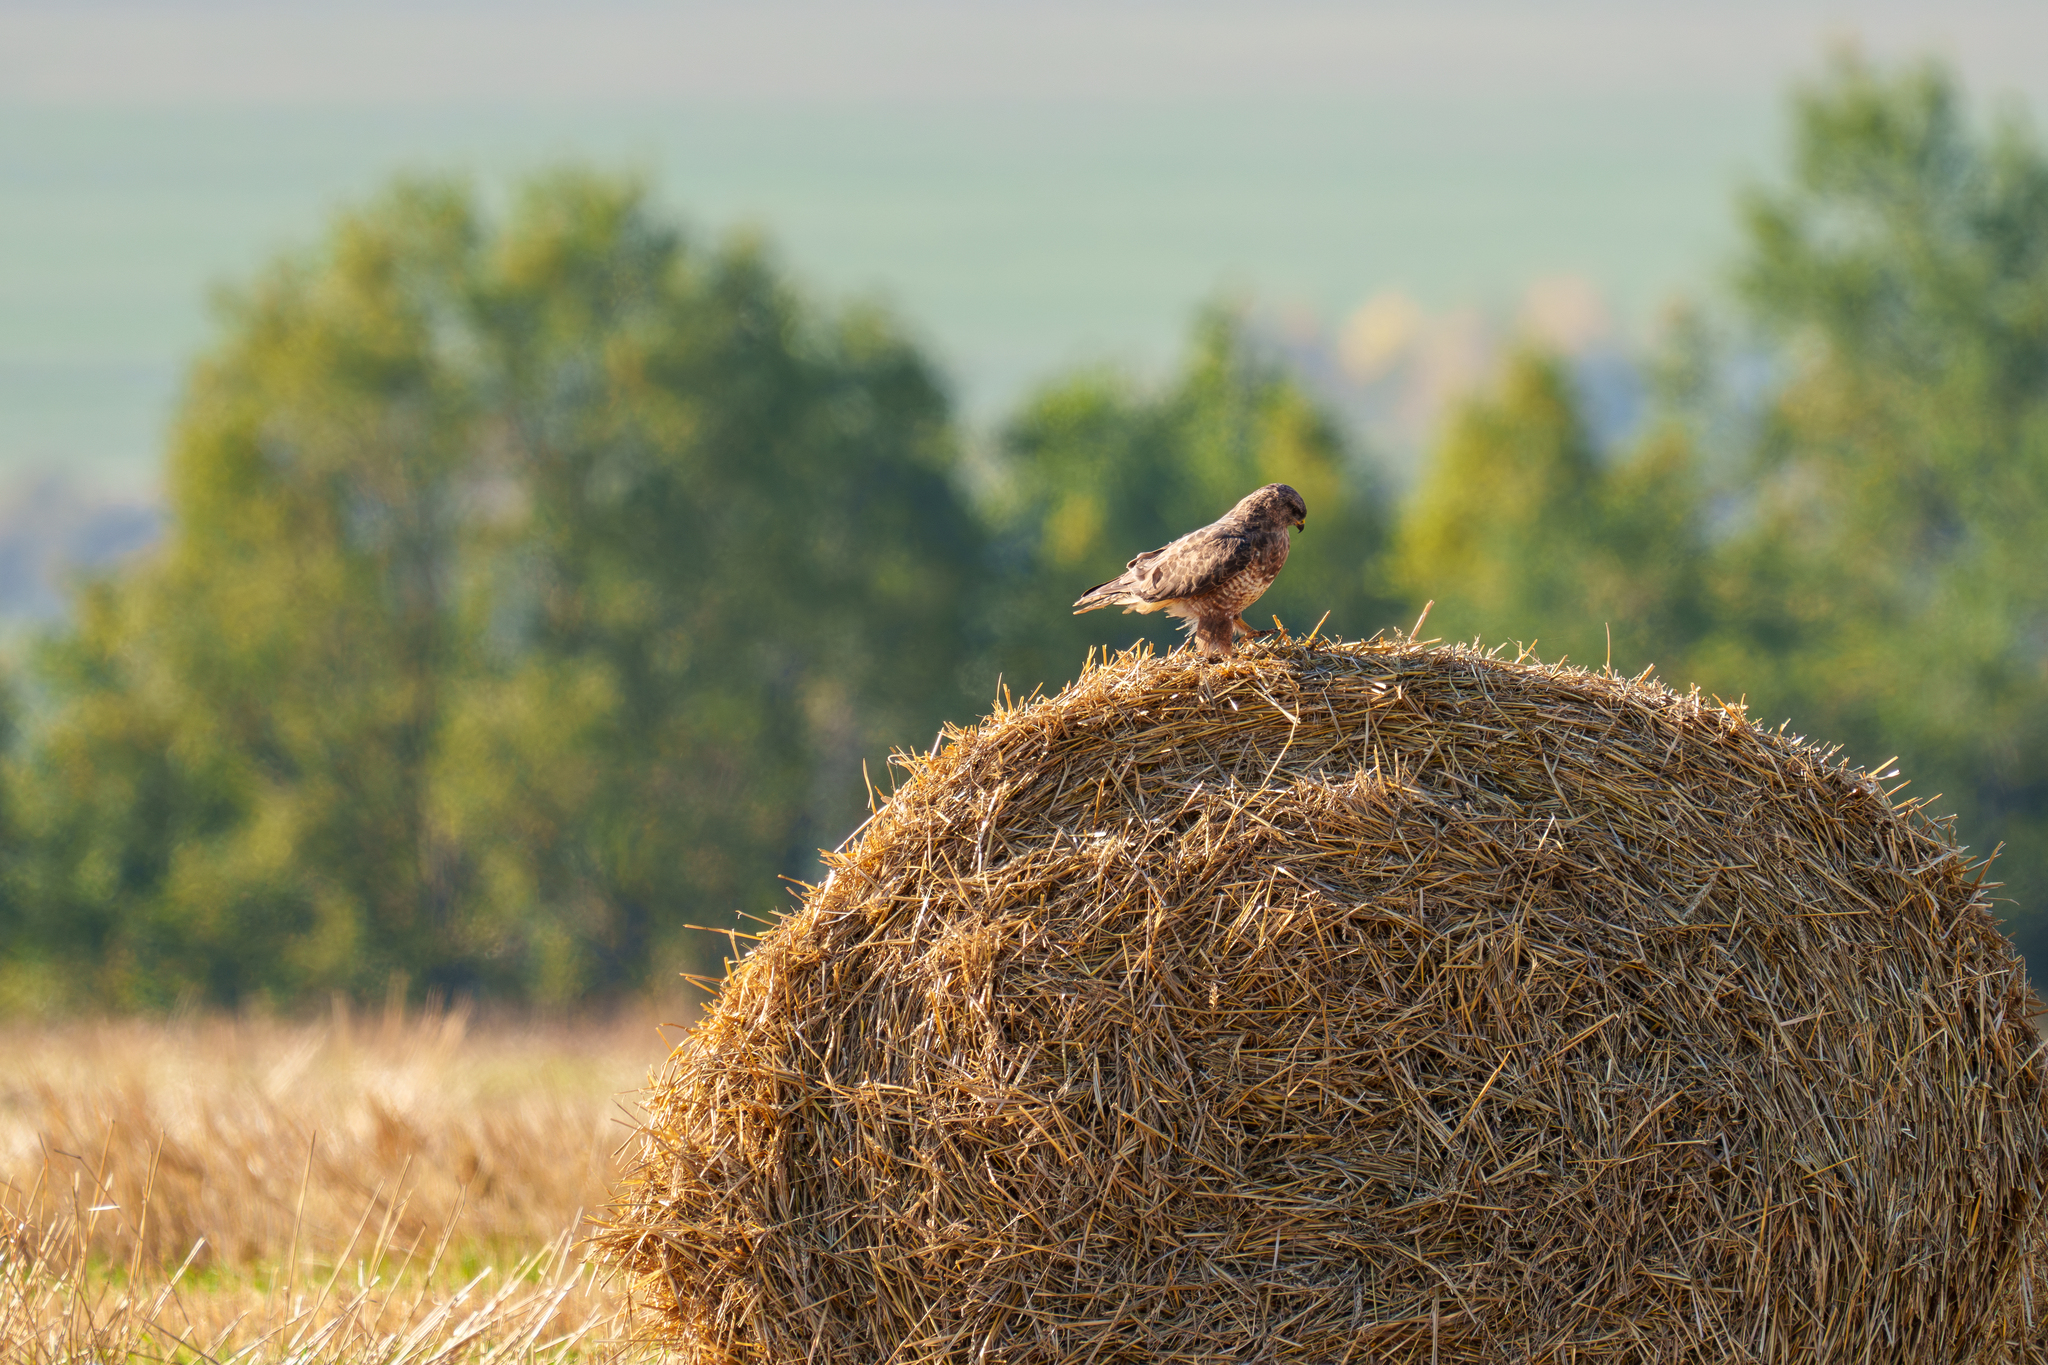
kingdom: Animalia
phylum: Chordata
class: Aves
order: Accipitriformes
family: Accipitridae
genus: Buteo
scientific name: Buteo buteo
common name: Common buzzard
